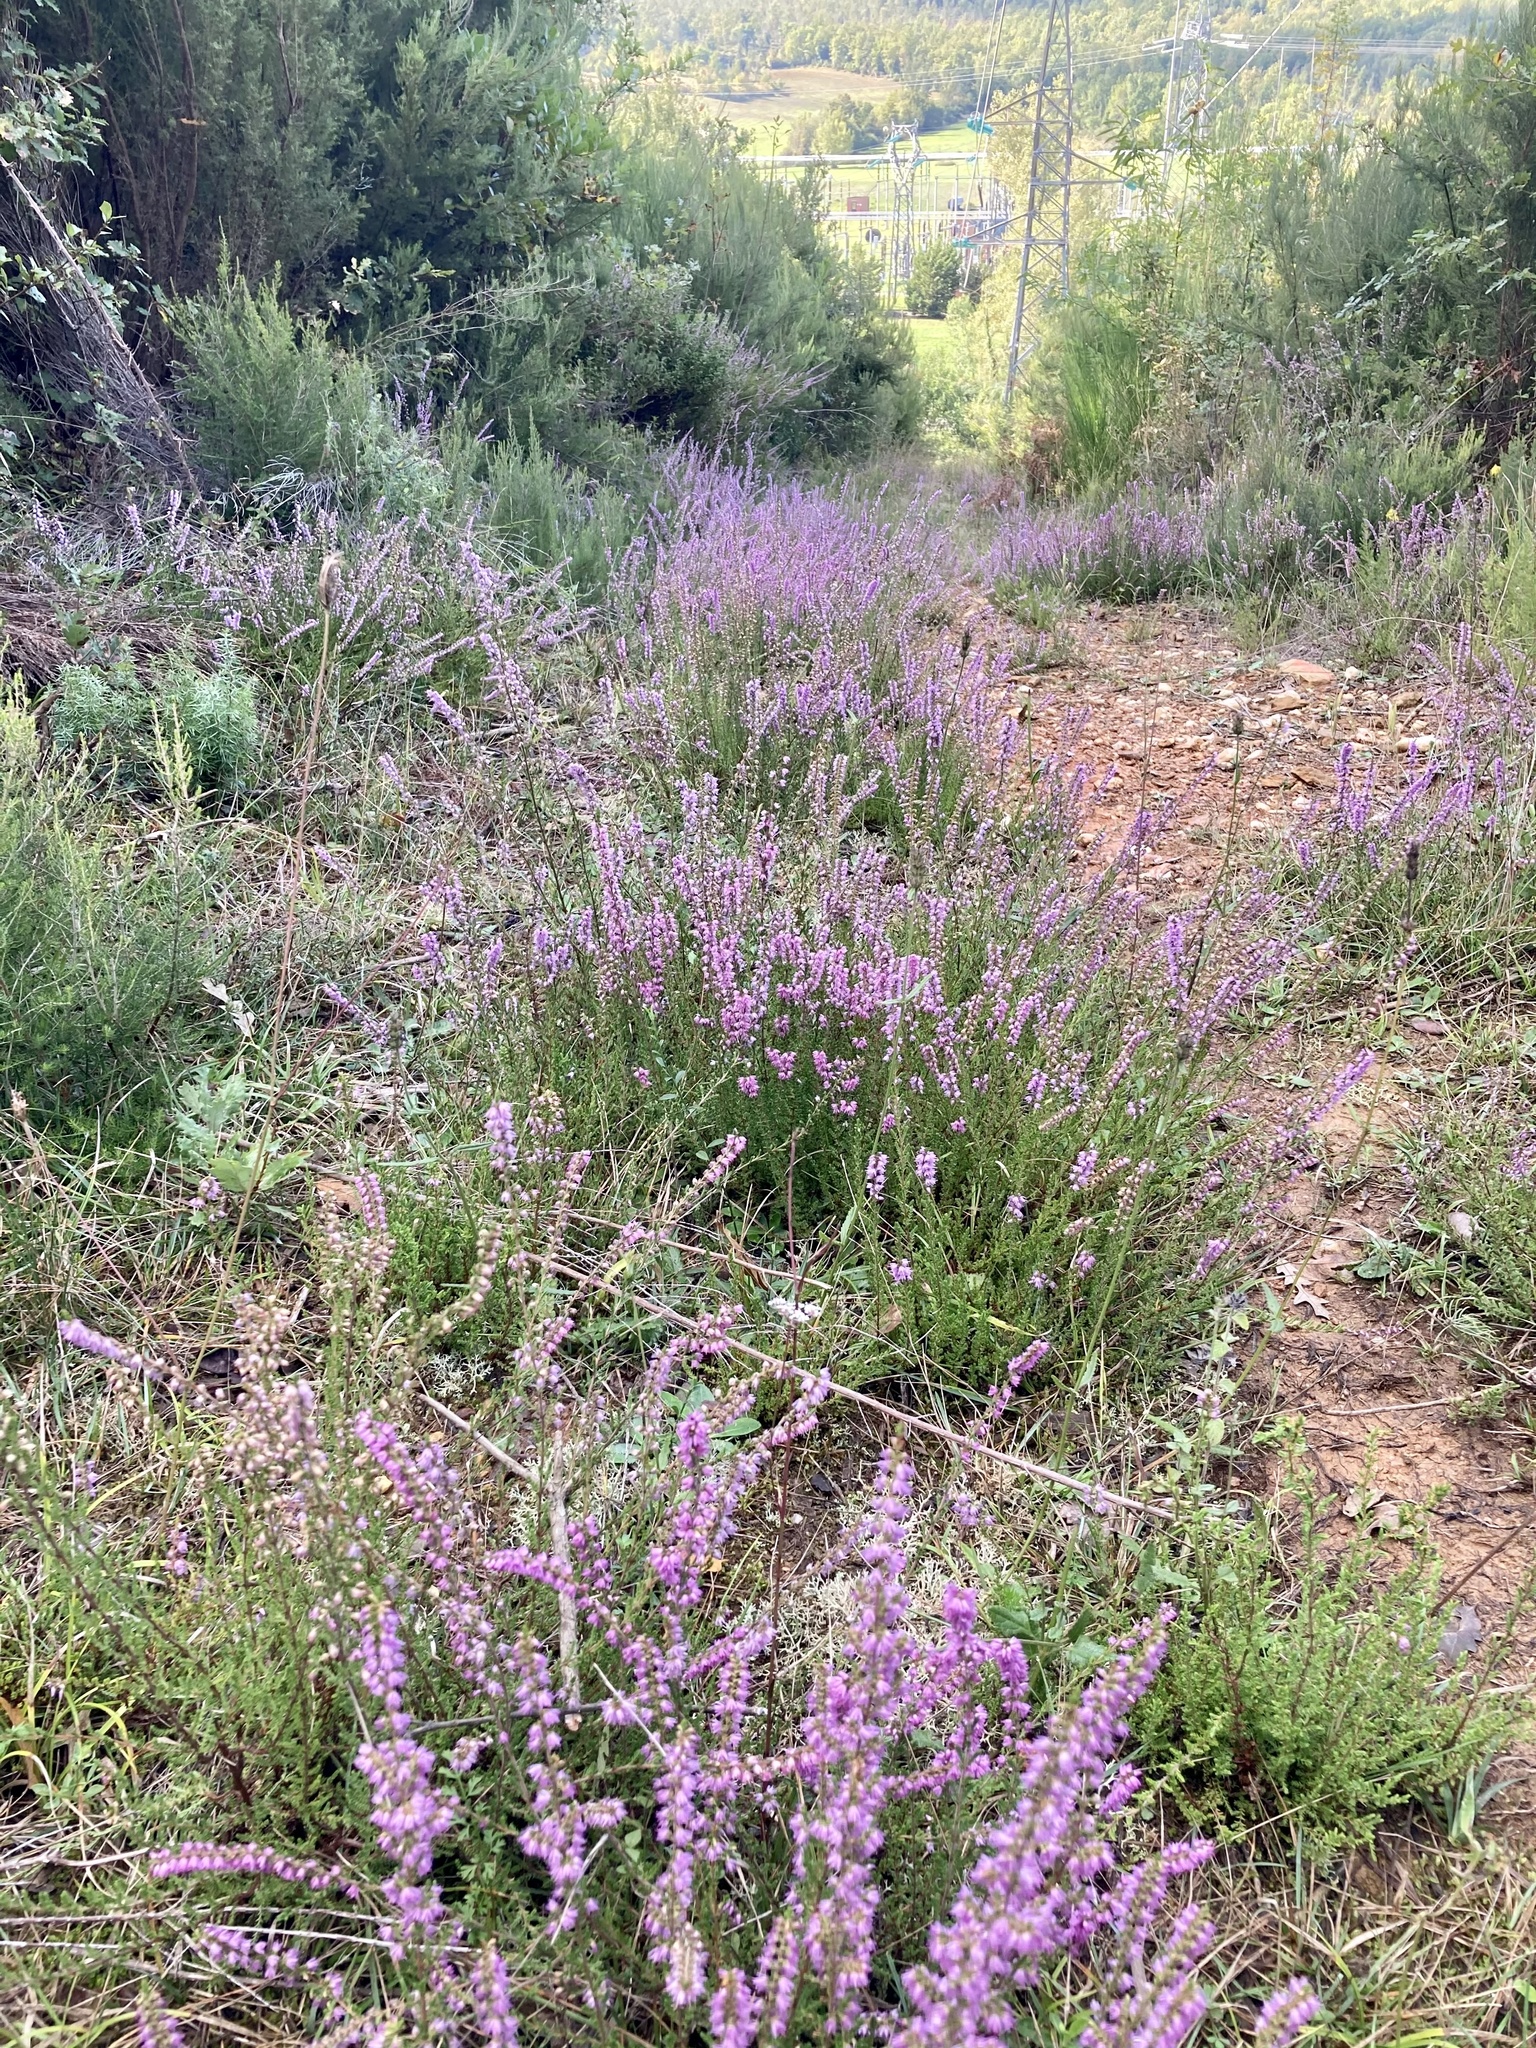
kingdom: Plantae
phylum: Tracheophyta
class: Magnoliopsida
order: Ericales
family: Ericaceae
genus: Calluna
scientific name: Calluna vulgaris
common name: Heather
